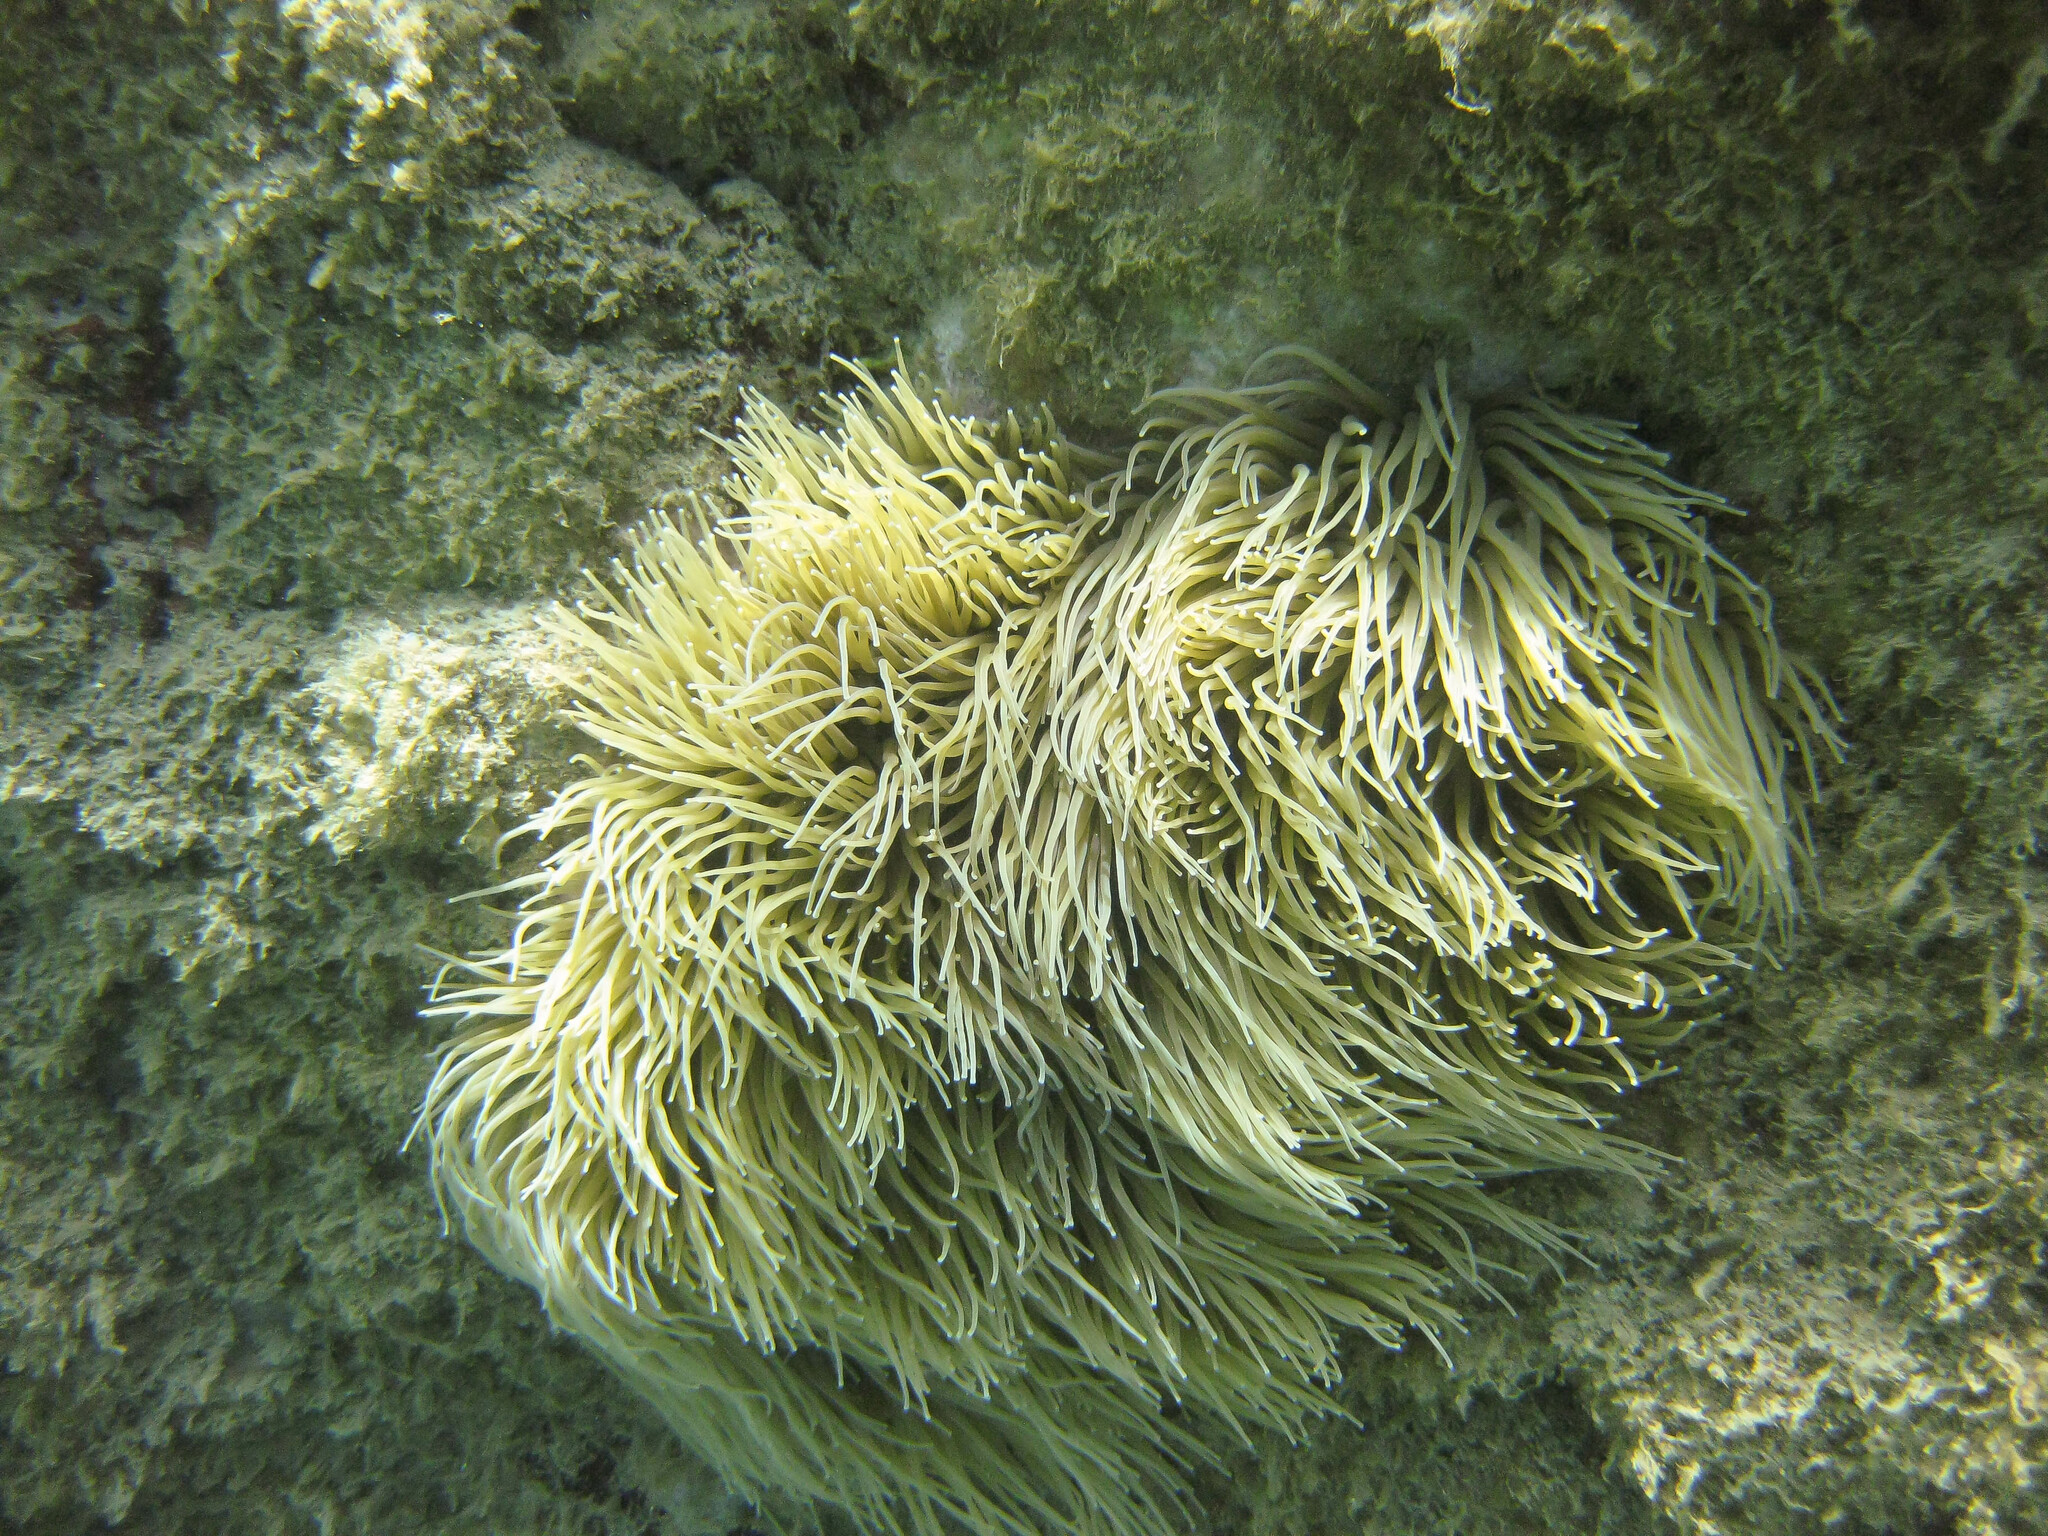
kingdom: Animalia
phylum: Cnidaria
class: Anthozoa
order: Actiniaria
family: Actiniidae
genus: Anemonia
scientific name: Anemonia viridis
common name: Snakelocks anemone
